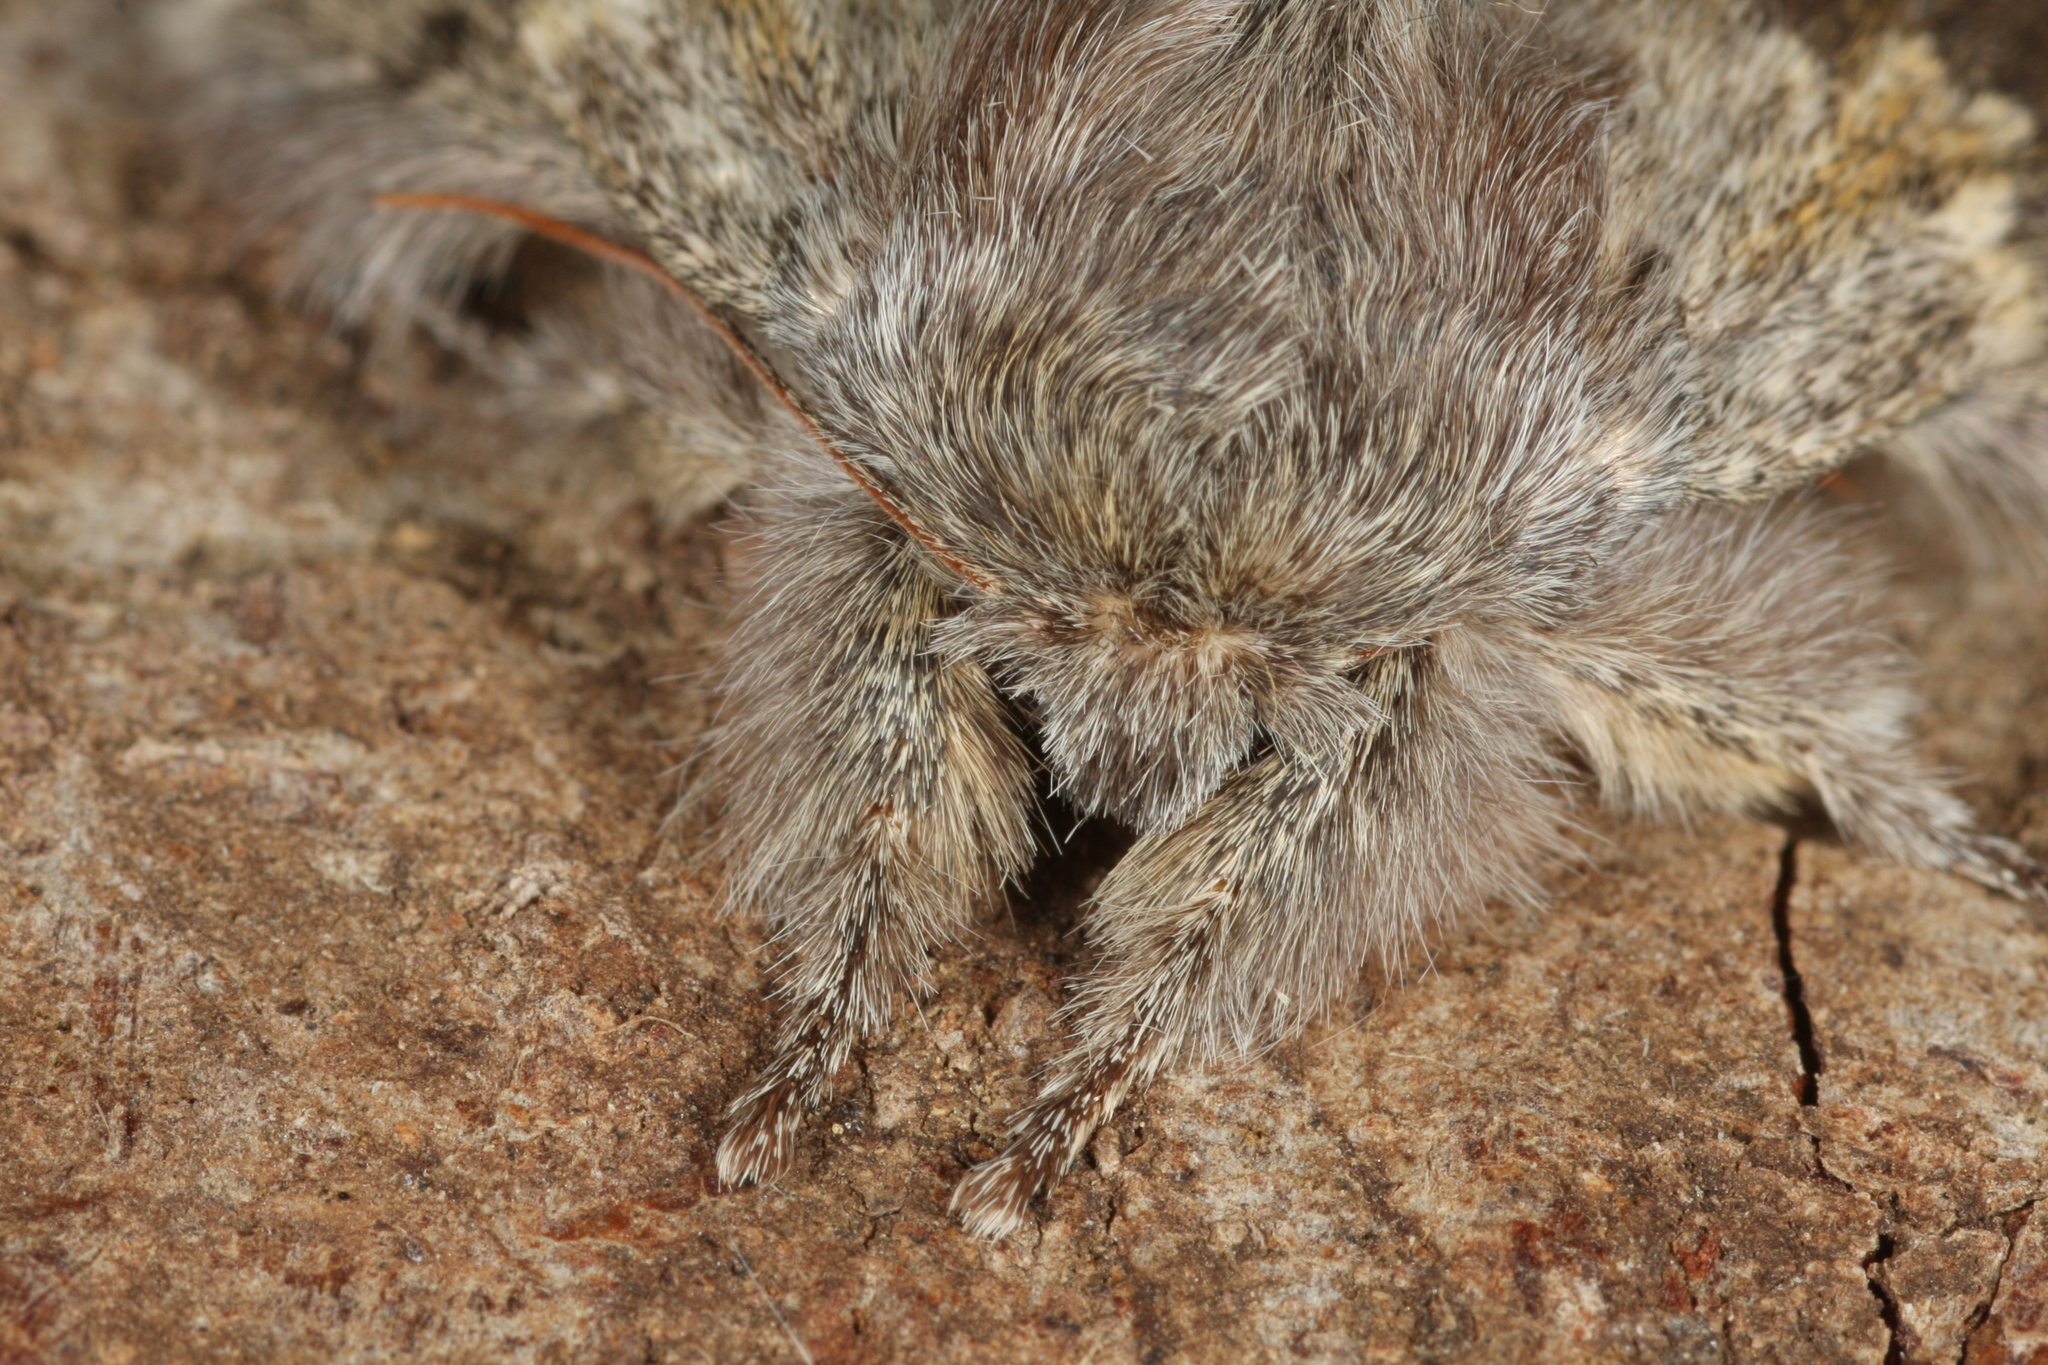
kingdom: Animalia
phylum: Arthropoda
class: Insecta
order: Lepidoptera
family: Notodontidae
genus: Stauropus
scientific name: Stauropus fagi
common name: Lobster moth
